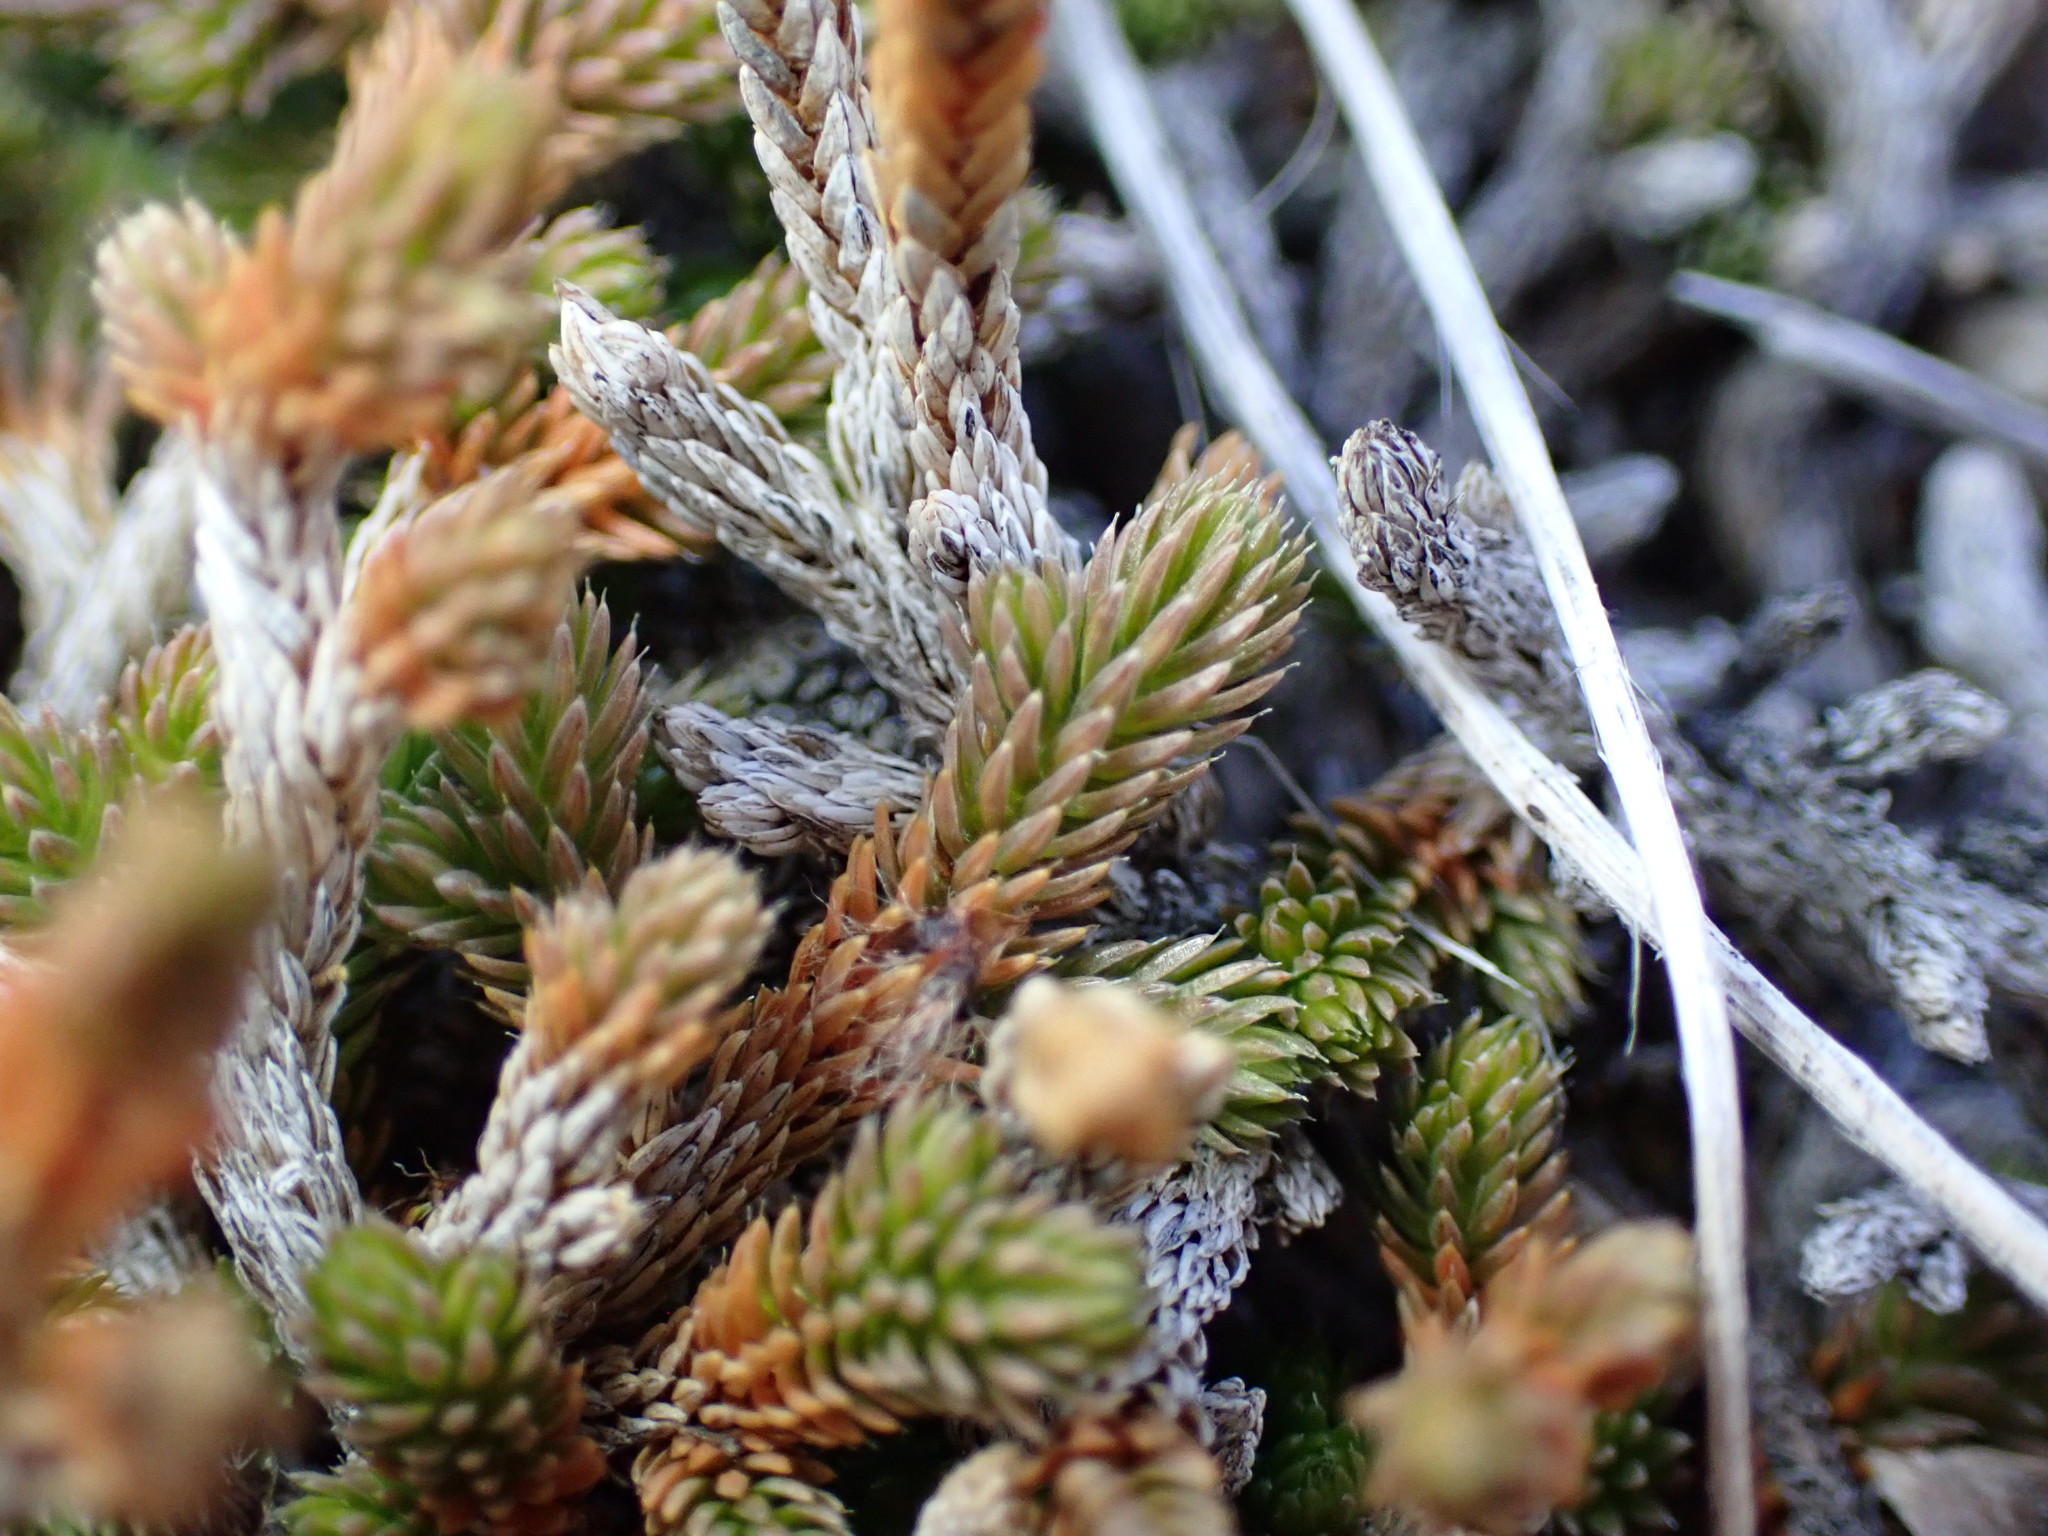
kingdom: Plantae
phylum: Tracheophyta
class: Lycopodiopsida
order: Selaginellales
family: Selaginellaceae
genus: Selaginella
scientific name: Selaginella wallacei
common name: Wallace's selaginella
